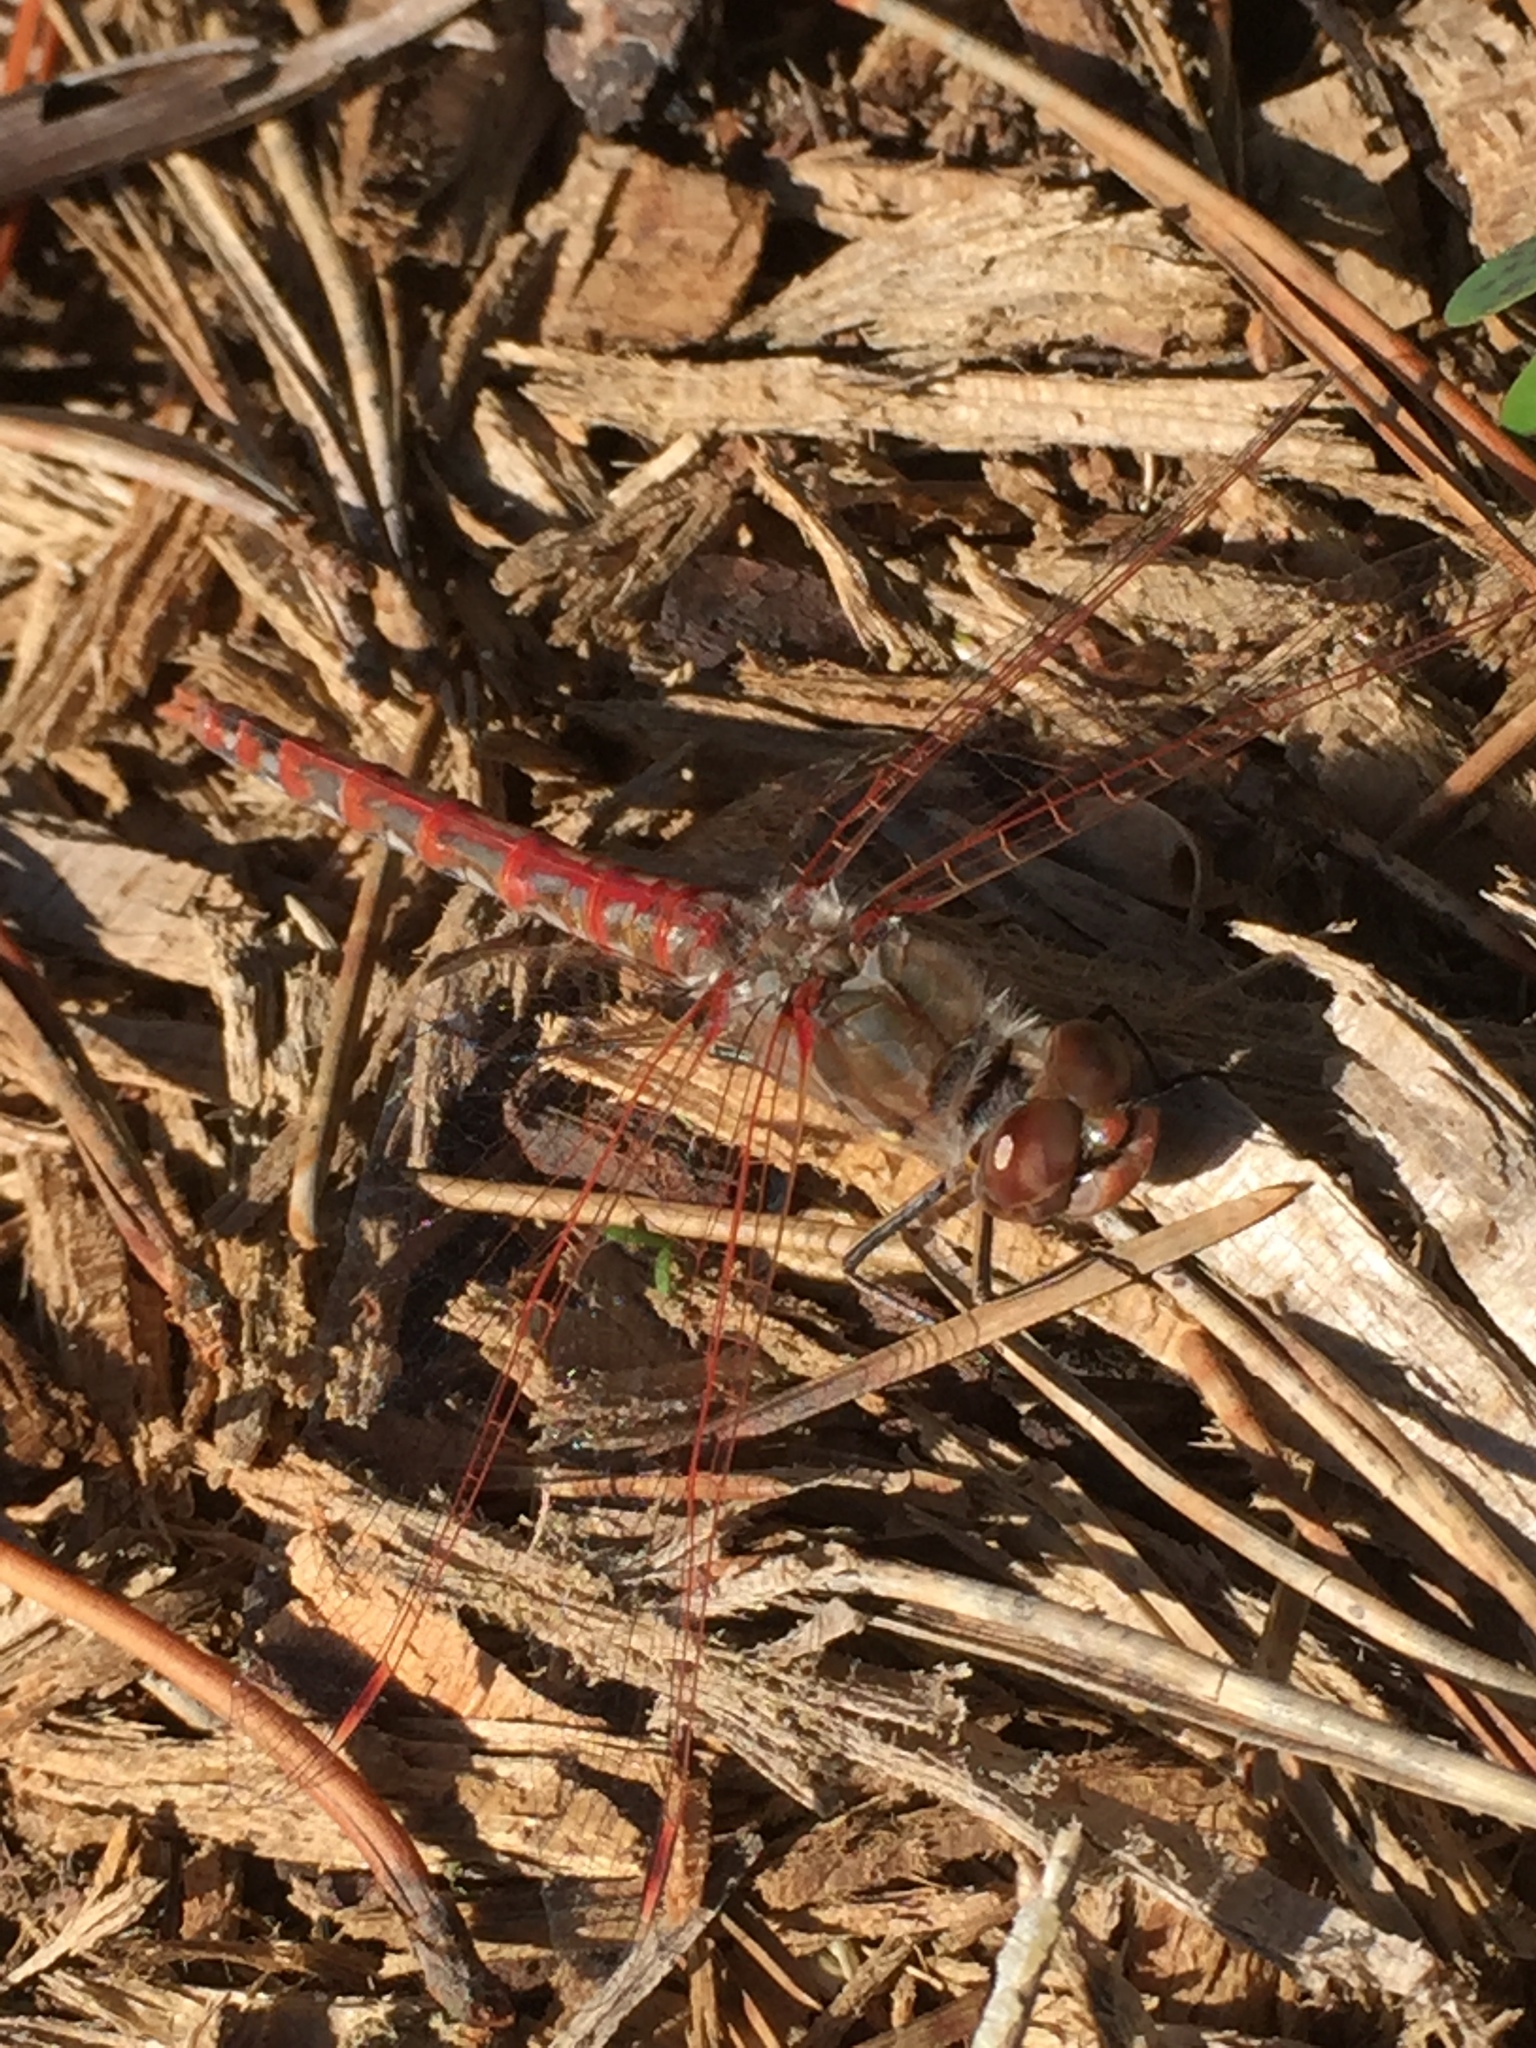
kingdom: Animalia
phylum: Arthropoda
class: Insecta
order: Odonata
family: Libellulidae
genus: Sympetrum
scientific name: Sympetrum corruptum
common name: Variegated meadowhawk
